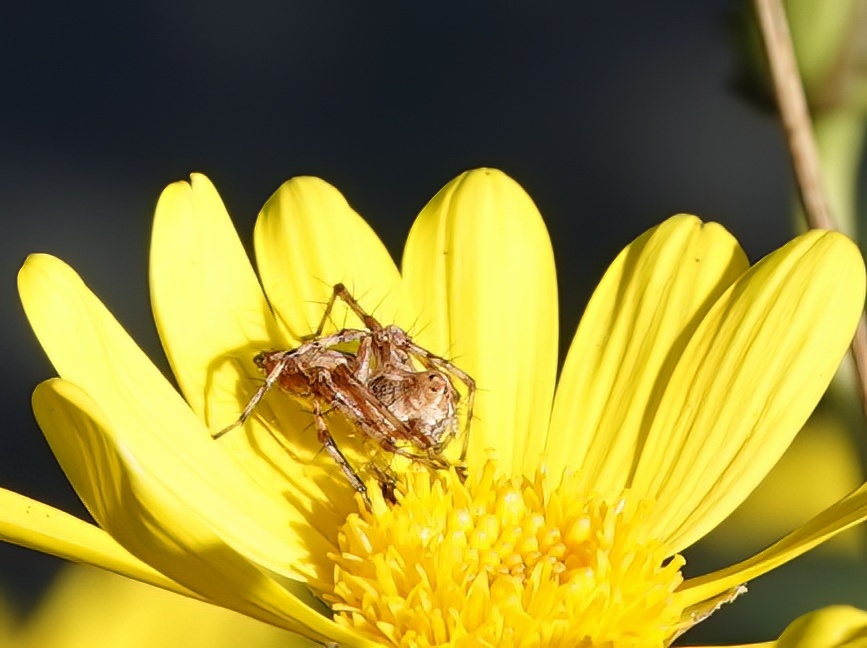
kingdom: Animalia
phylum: Arthropoda
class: Arachnida
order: Araneae
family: Oxyopidae
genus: Oxyopes
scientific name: Oxyopes scalaris
